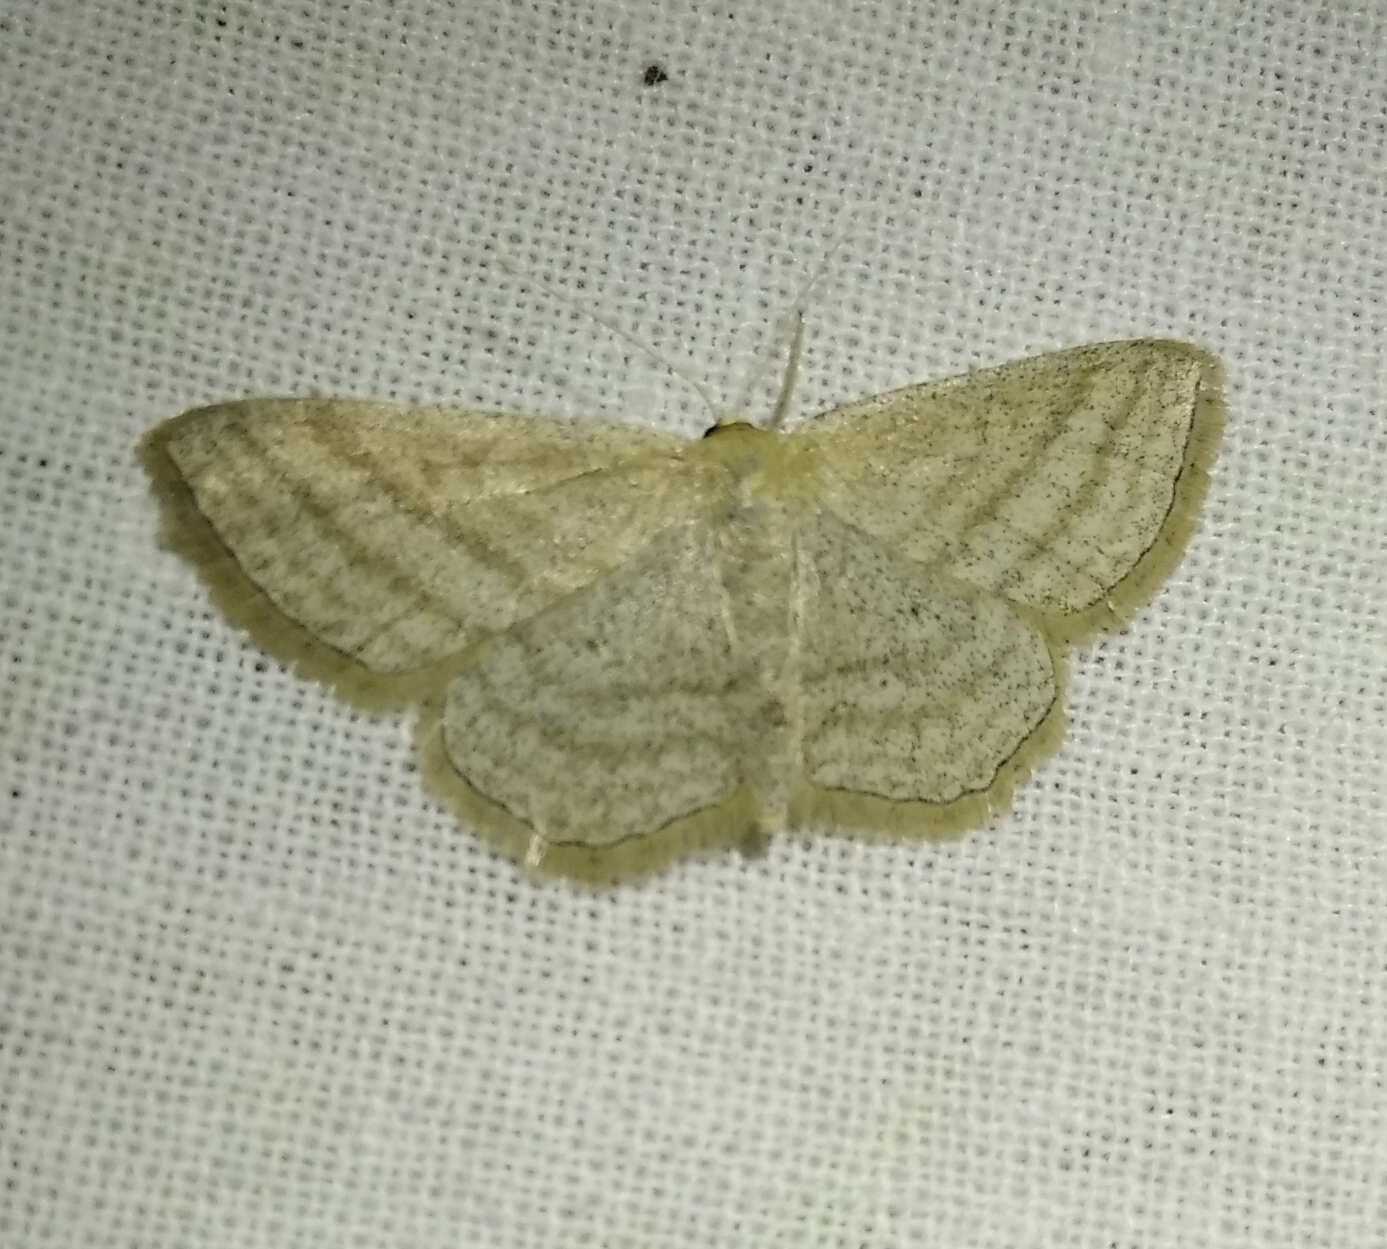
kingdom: Animalia
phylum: Arthropoda
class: Insecta
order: Lepidoptera
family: Geometridae
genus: Scopula
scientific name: Scopula virgulata
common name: Streaked wave
